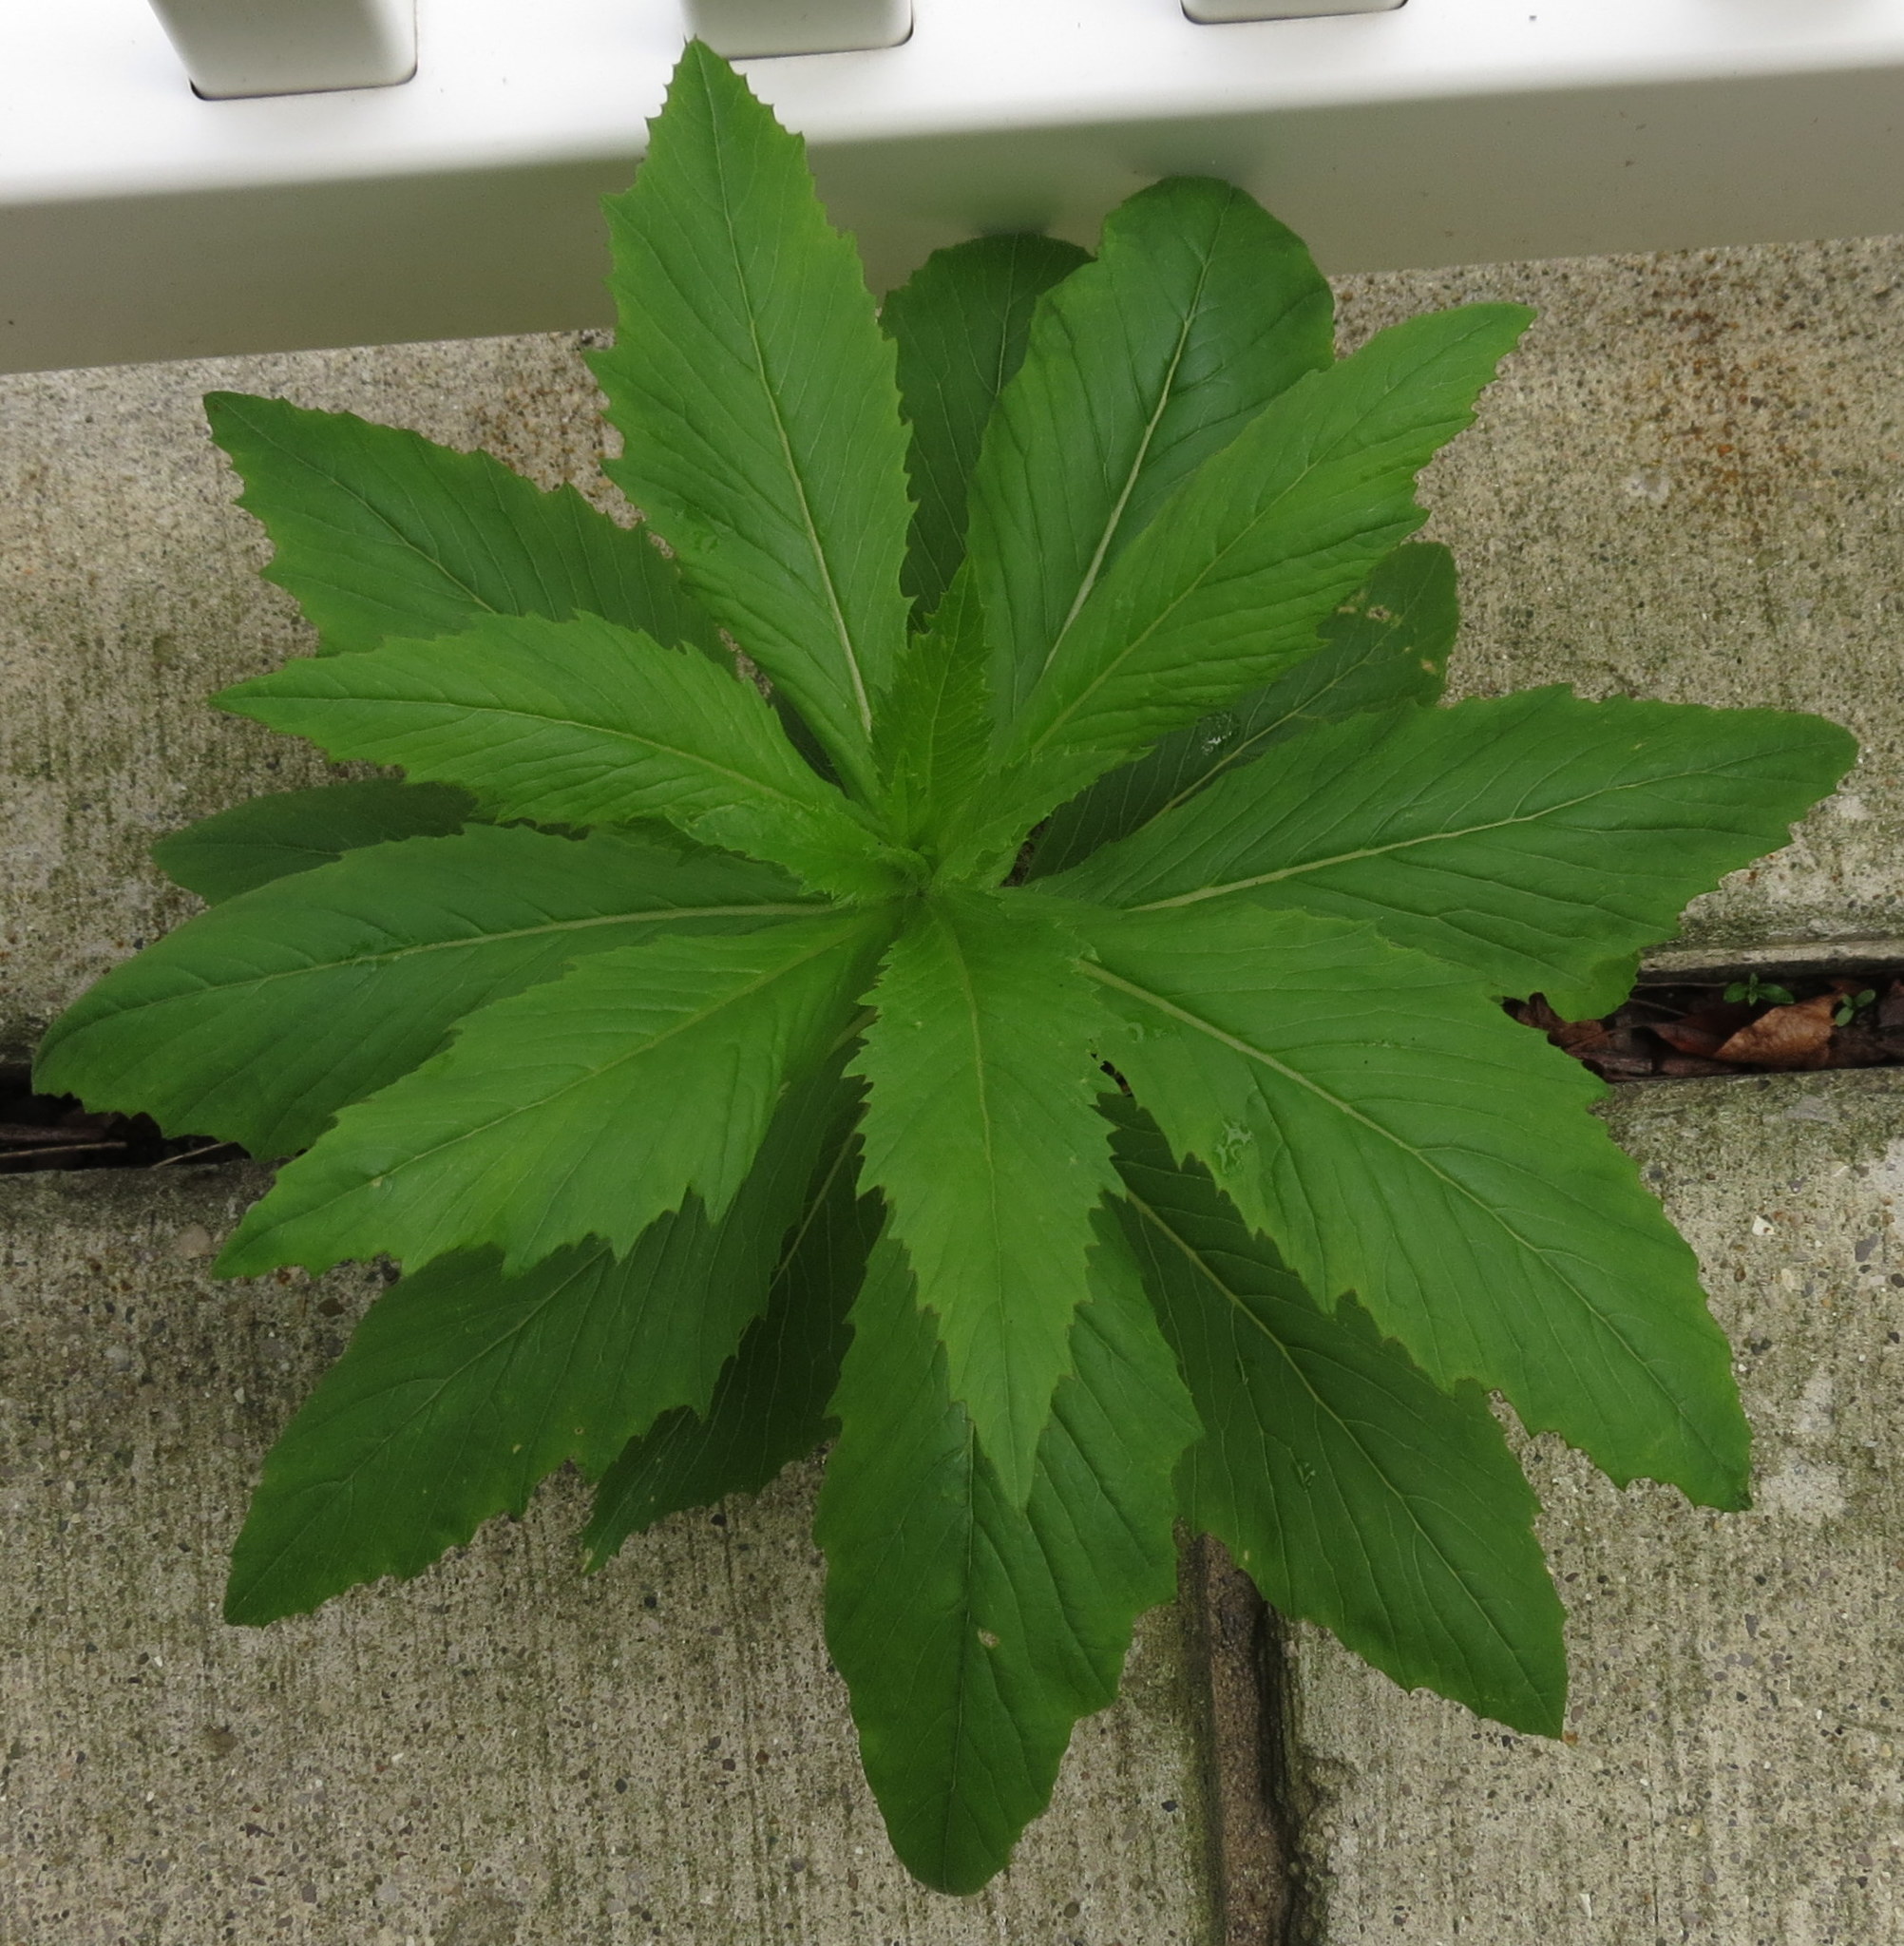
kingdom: Plantae
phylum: Tracheophyta
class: Magnoliopsida
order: Asterales
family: Asteraceae
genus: Erechtites
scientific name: Erechtites hieraciifolius
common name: American burnweed
